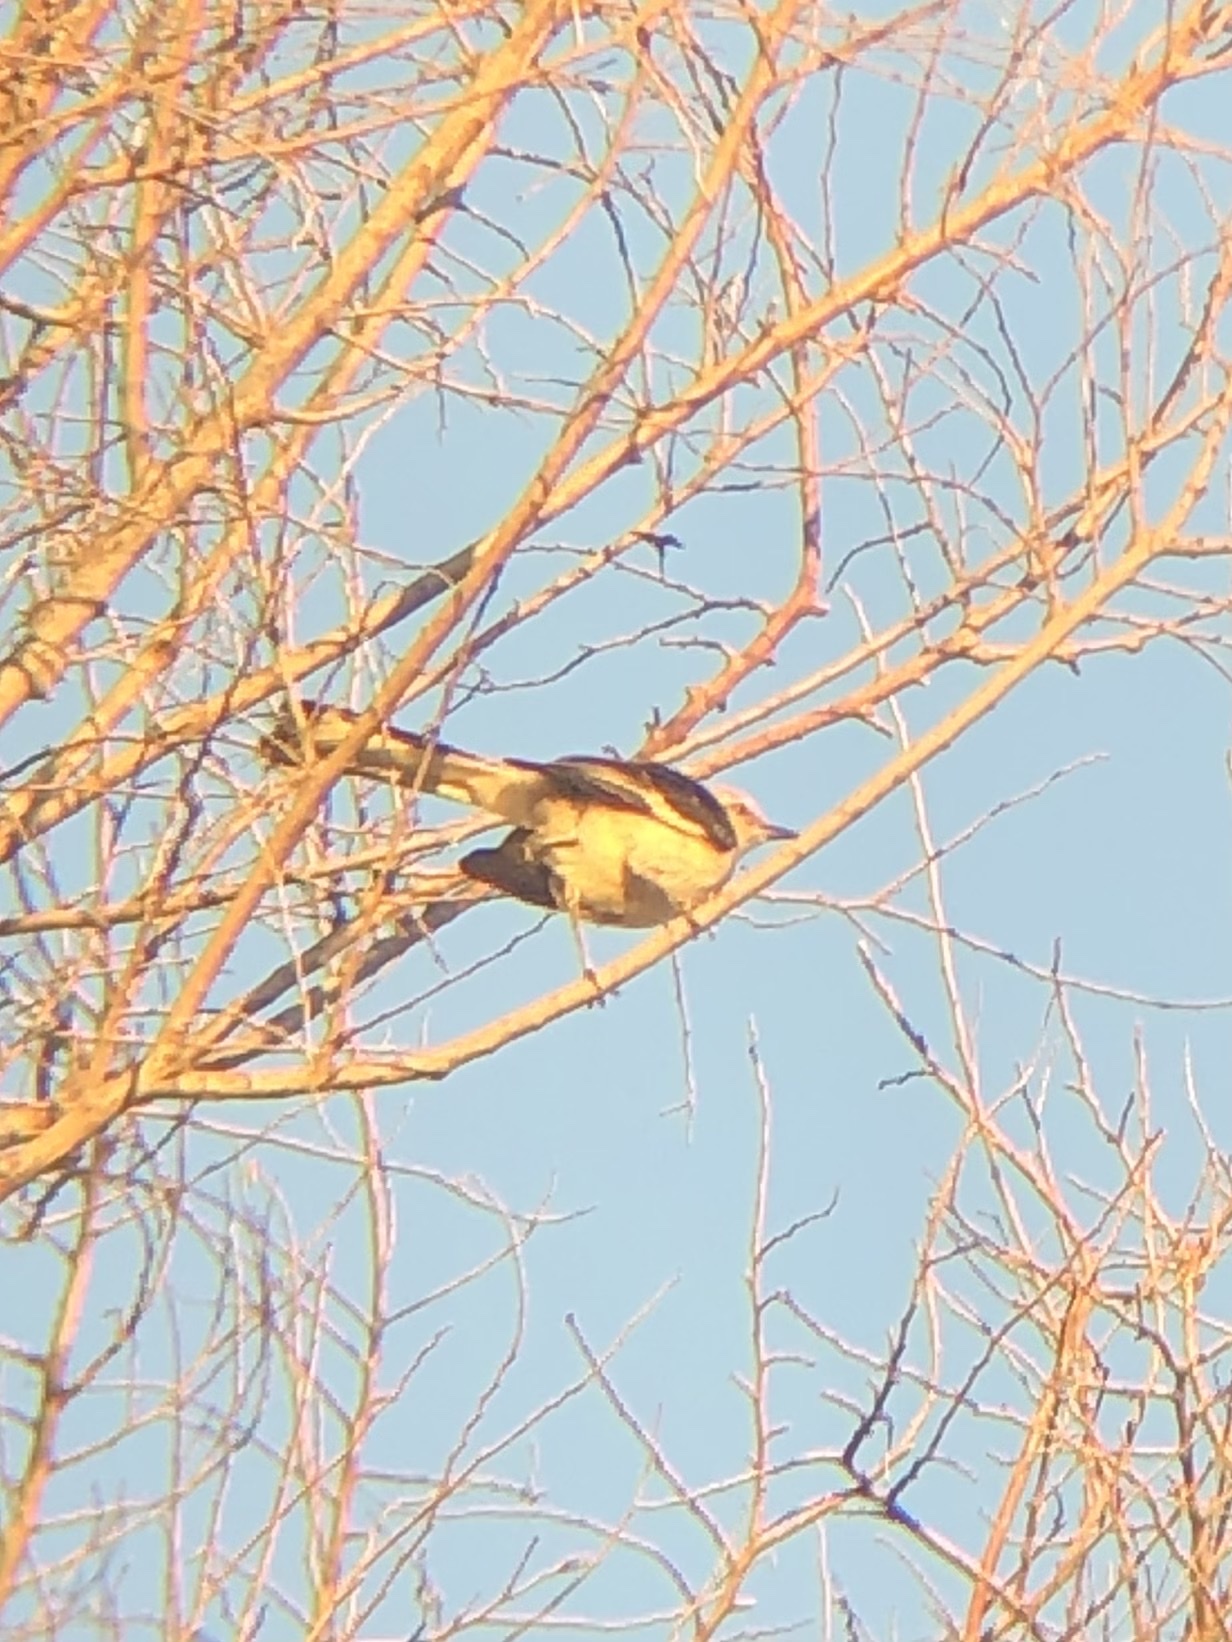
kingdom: Animalia
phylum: Chordata
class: Aves
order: Passeriformes
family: Mimidae
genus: Mimus
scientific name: Mimus polyglottos
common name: Northern mockingbird
